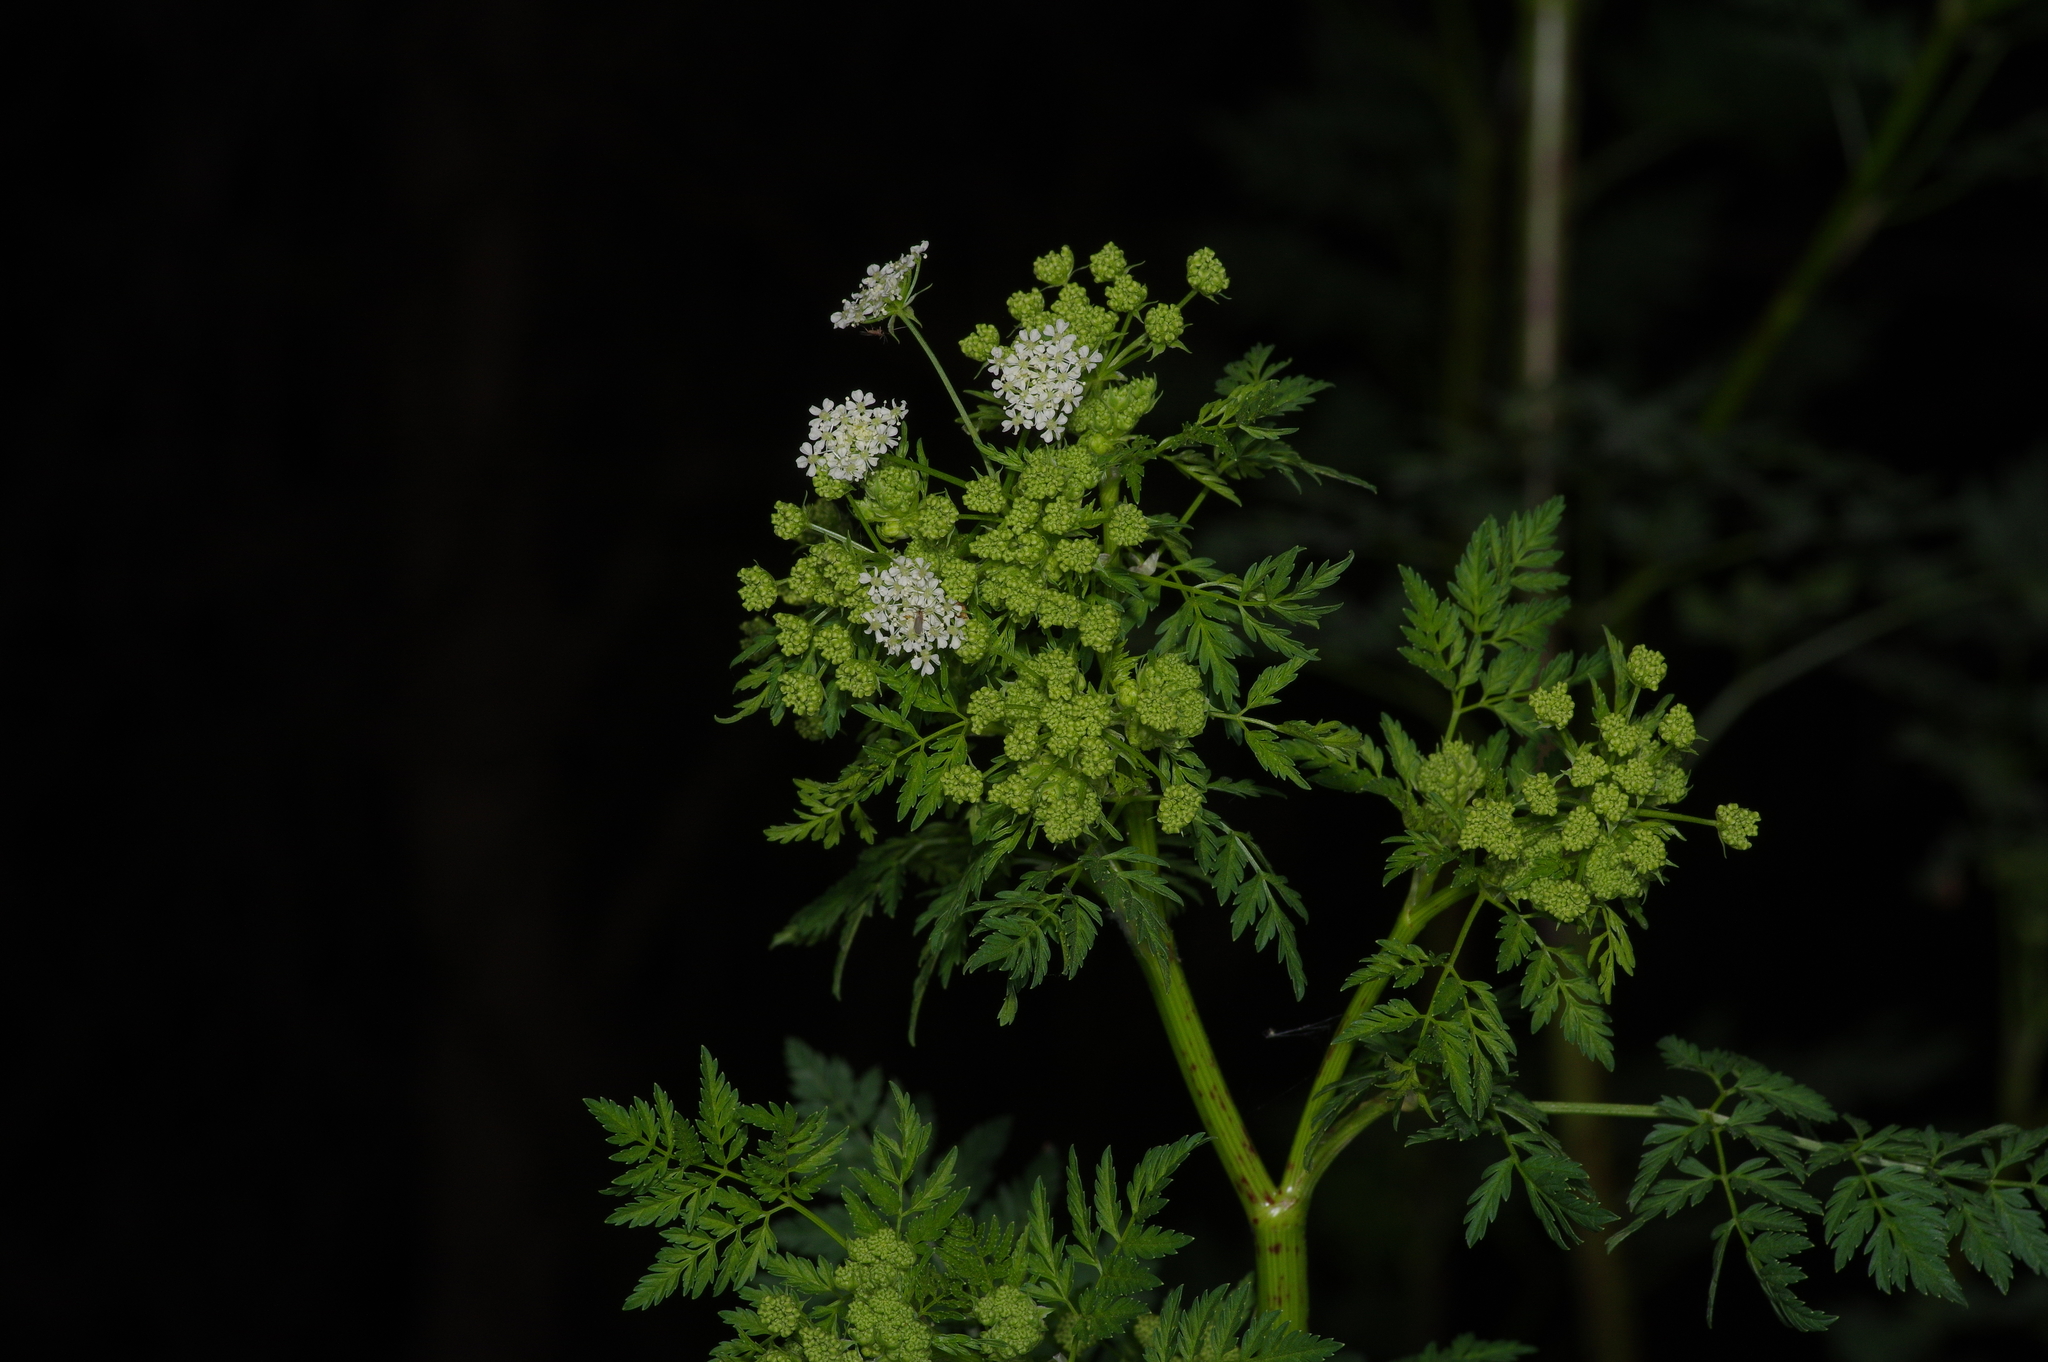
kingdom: Plantae
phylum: Tracheophyta
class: Magnoliopsida
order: Apiales
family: Apiaceae
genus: Conium
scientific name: Conium maculatum
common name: Hemlock
